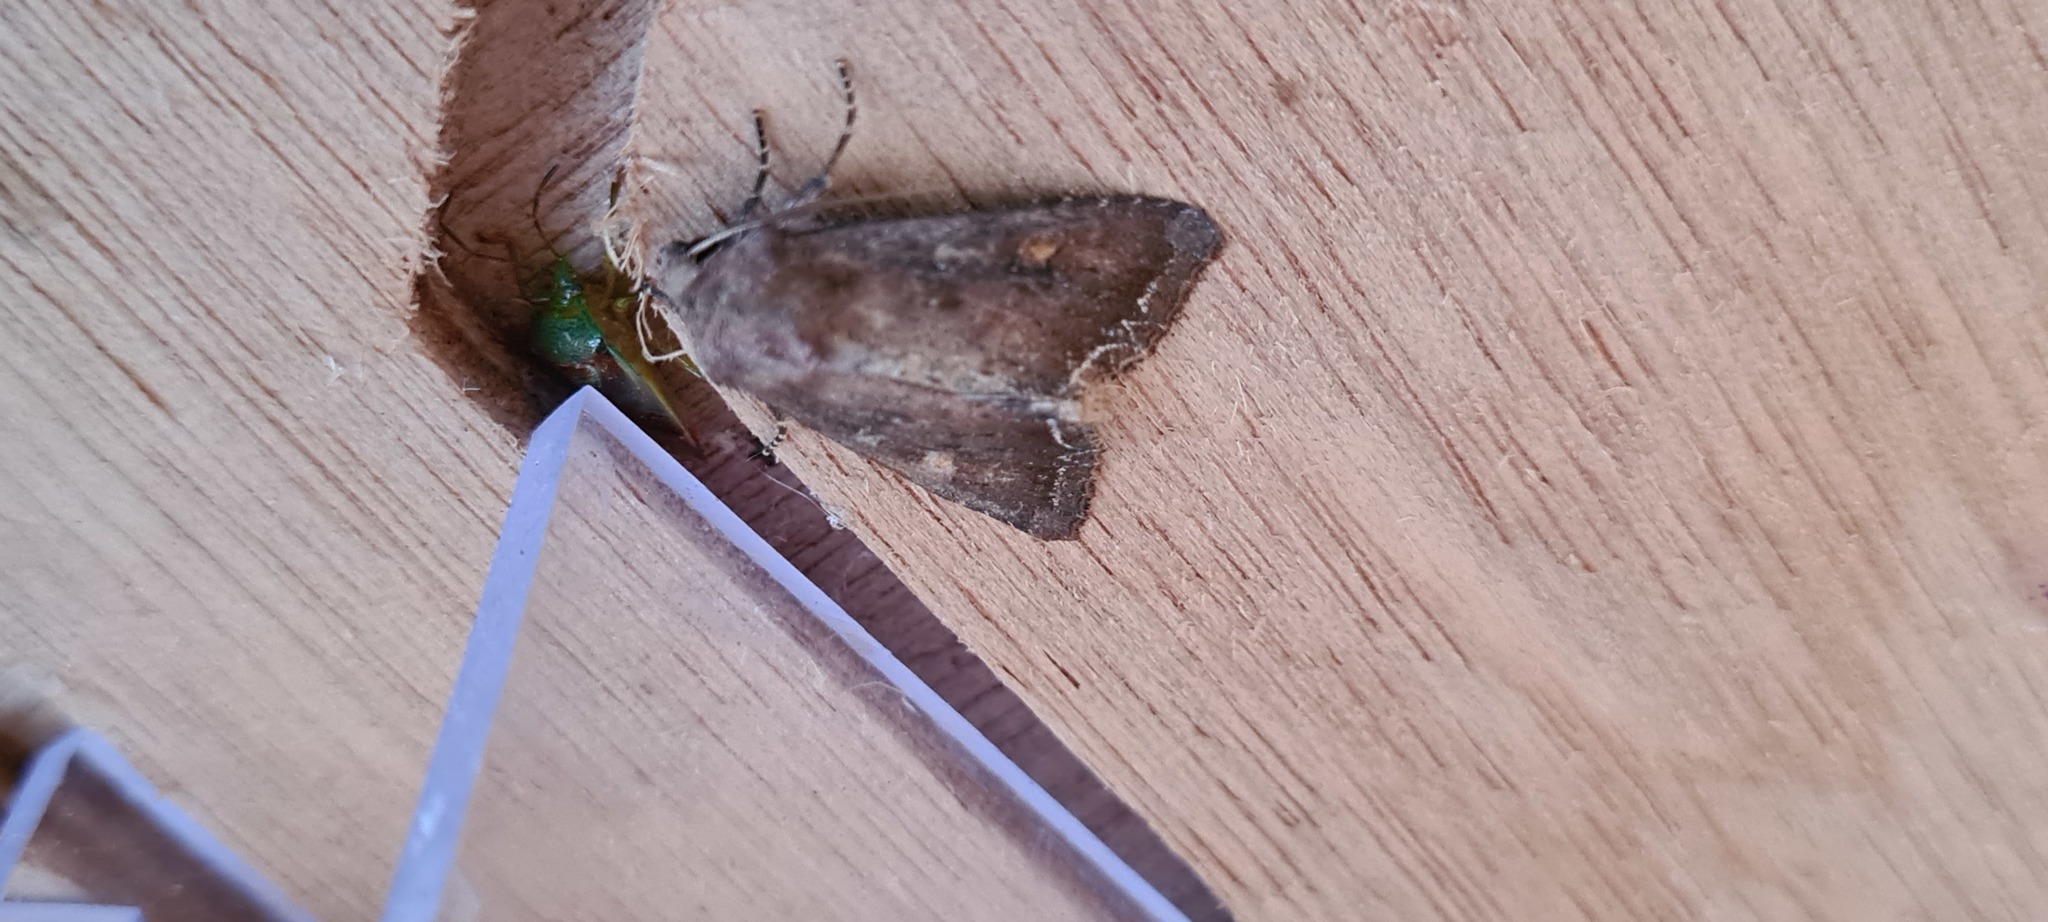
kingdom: Animalia
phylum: Arthropoda
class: Insecta
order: Lepidoptera
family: Noctuidae
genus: Lacanobia
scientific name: Lacanobia oleracea
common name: Bright-line brown-eye
